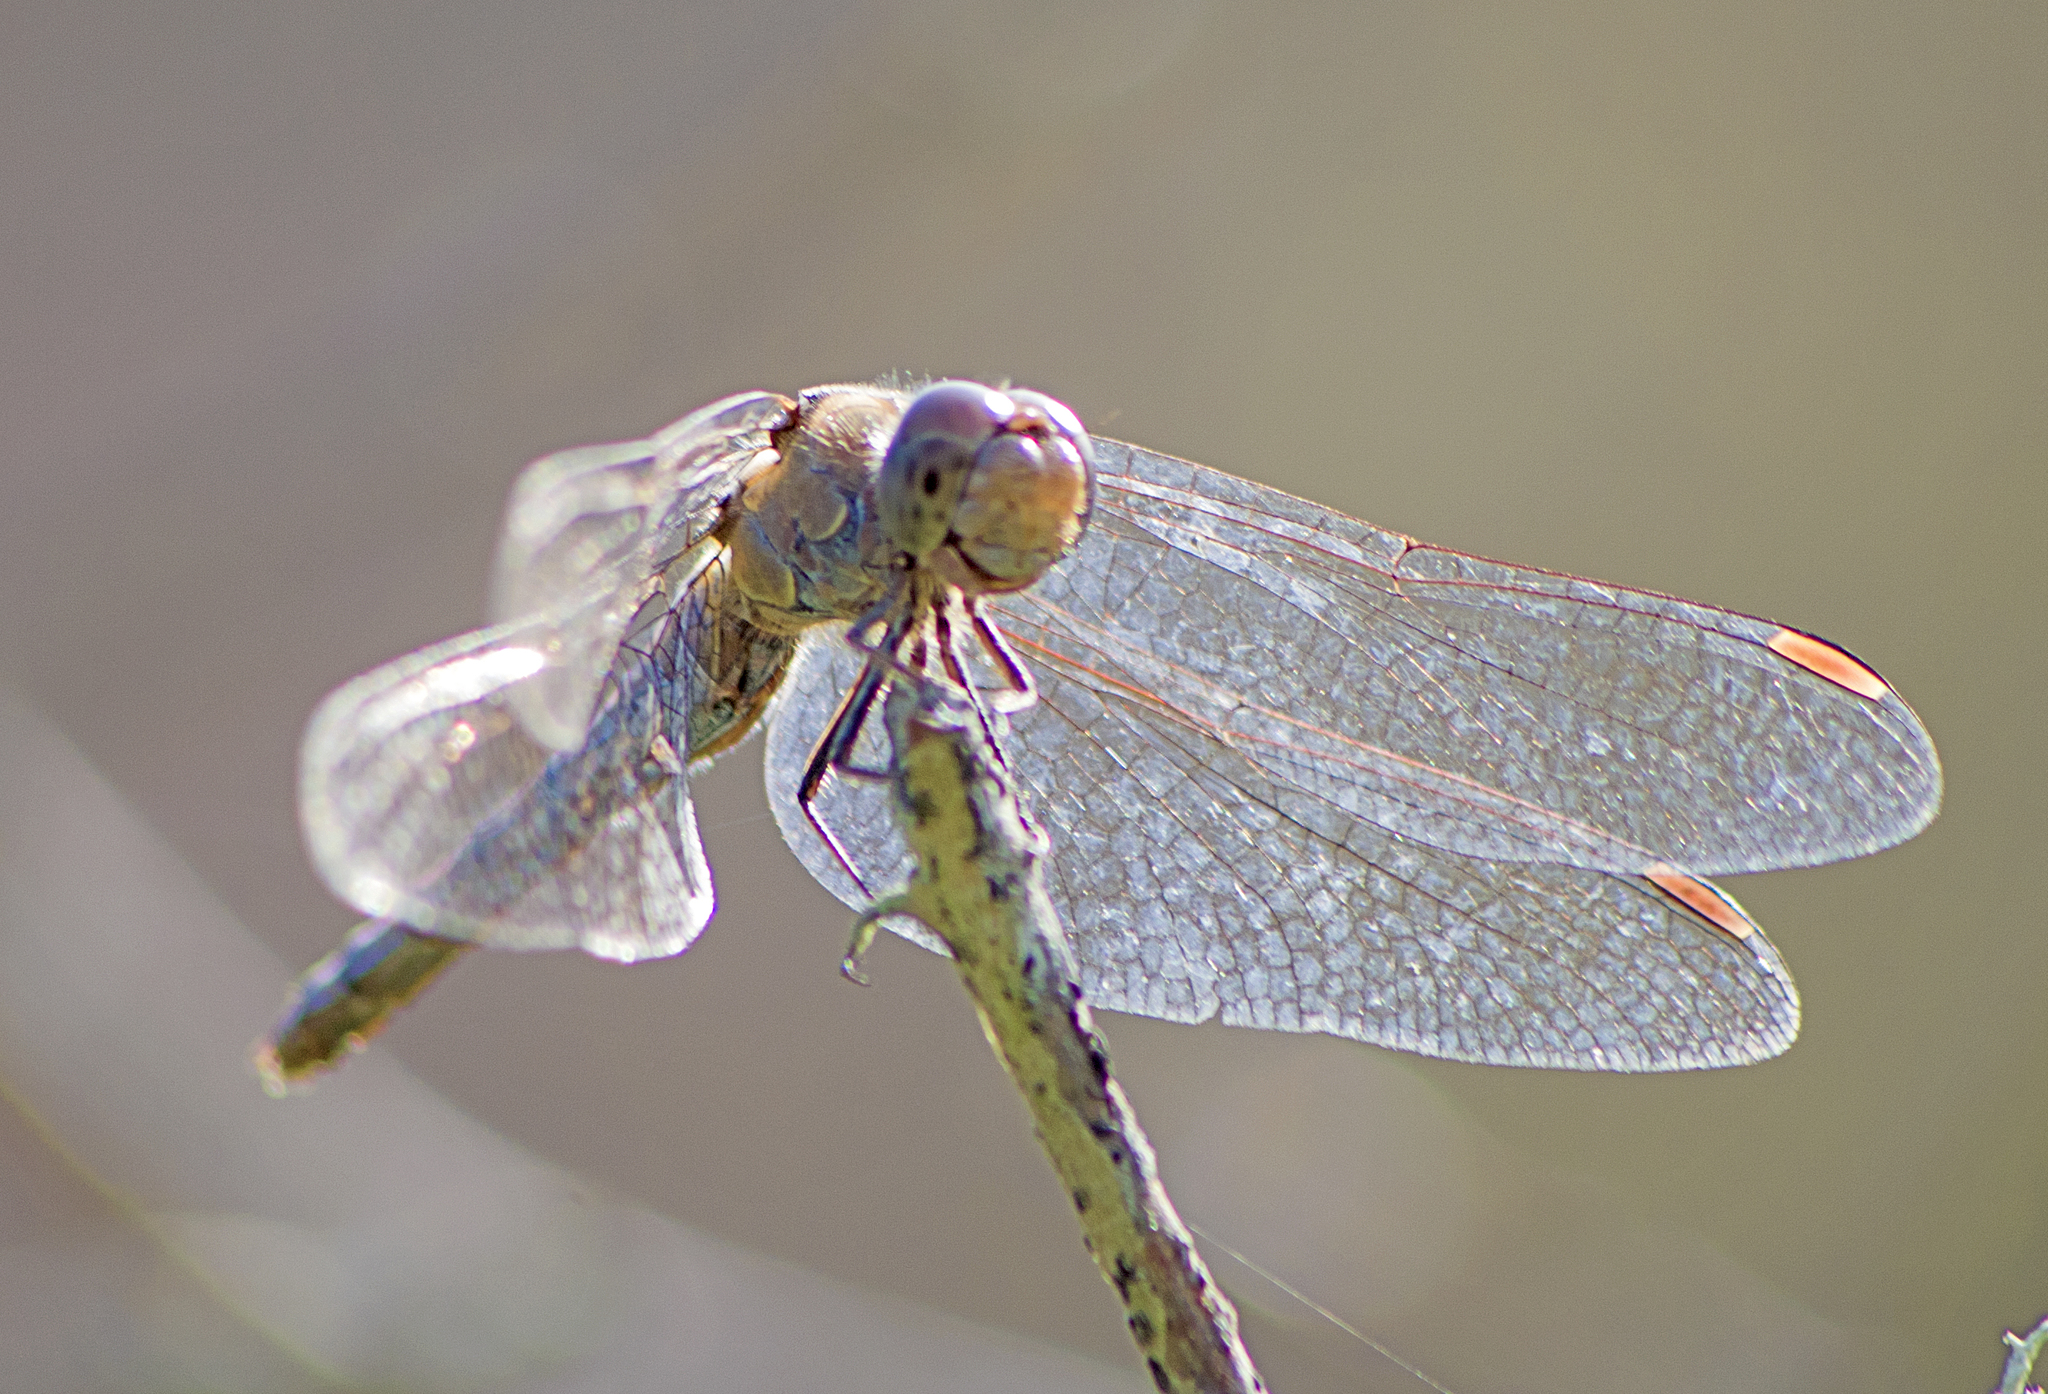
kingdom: Animalia
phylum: Arthropoda
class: Insecta
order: Odonata
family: Libellulidae
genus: Sympetrum
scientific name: Sympetrum striolatum
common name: Common darter
